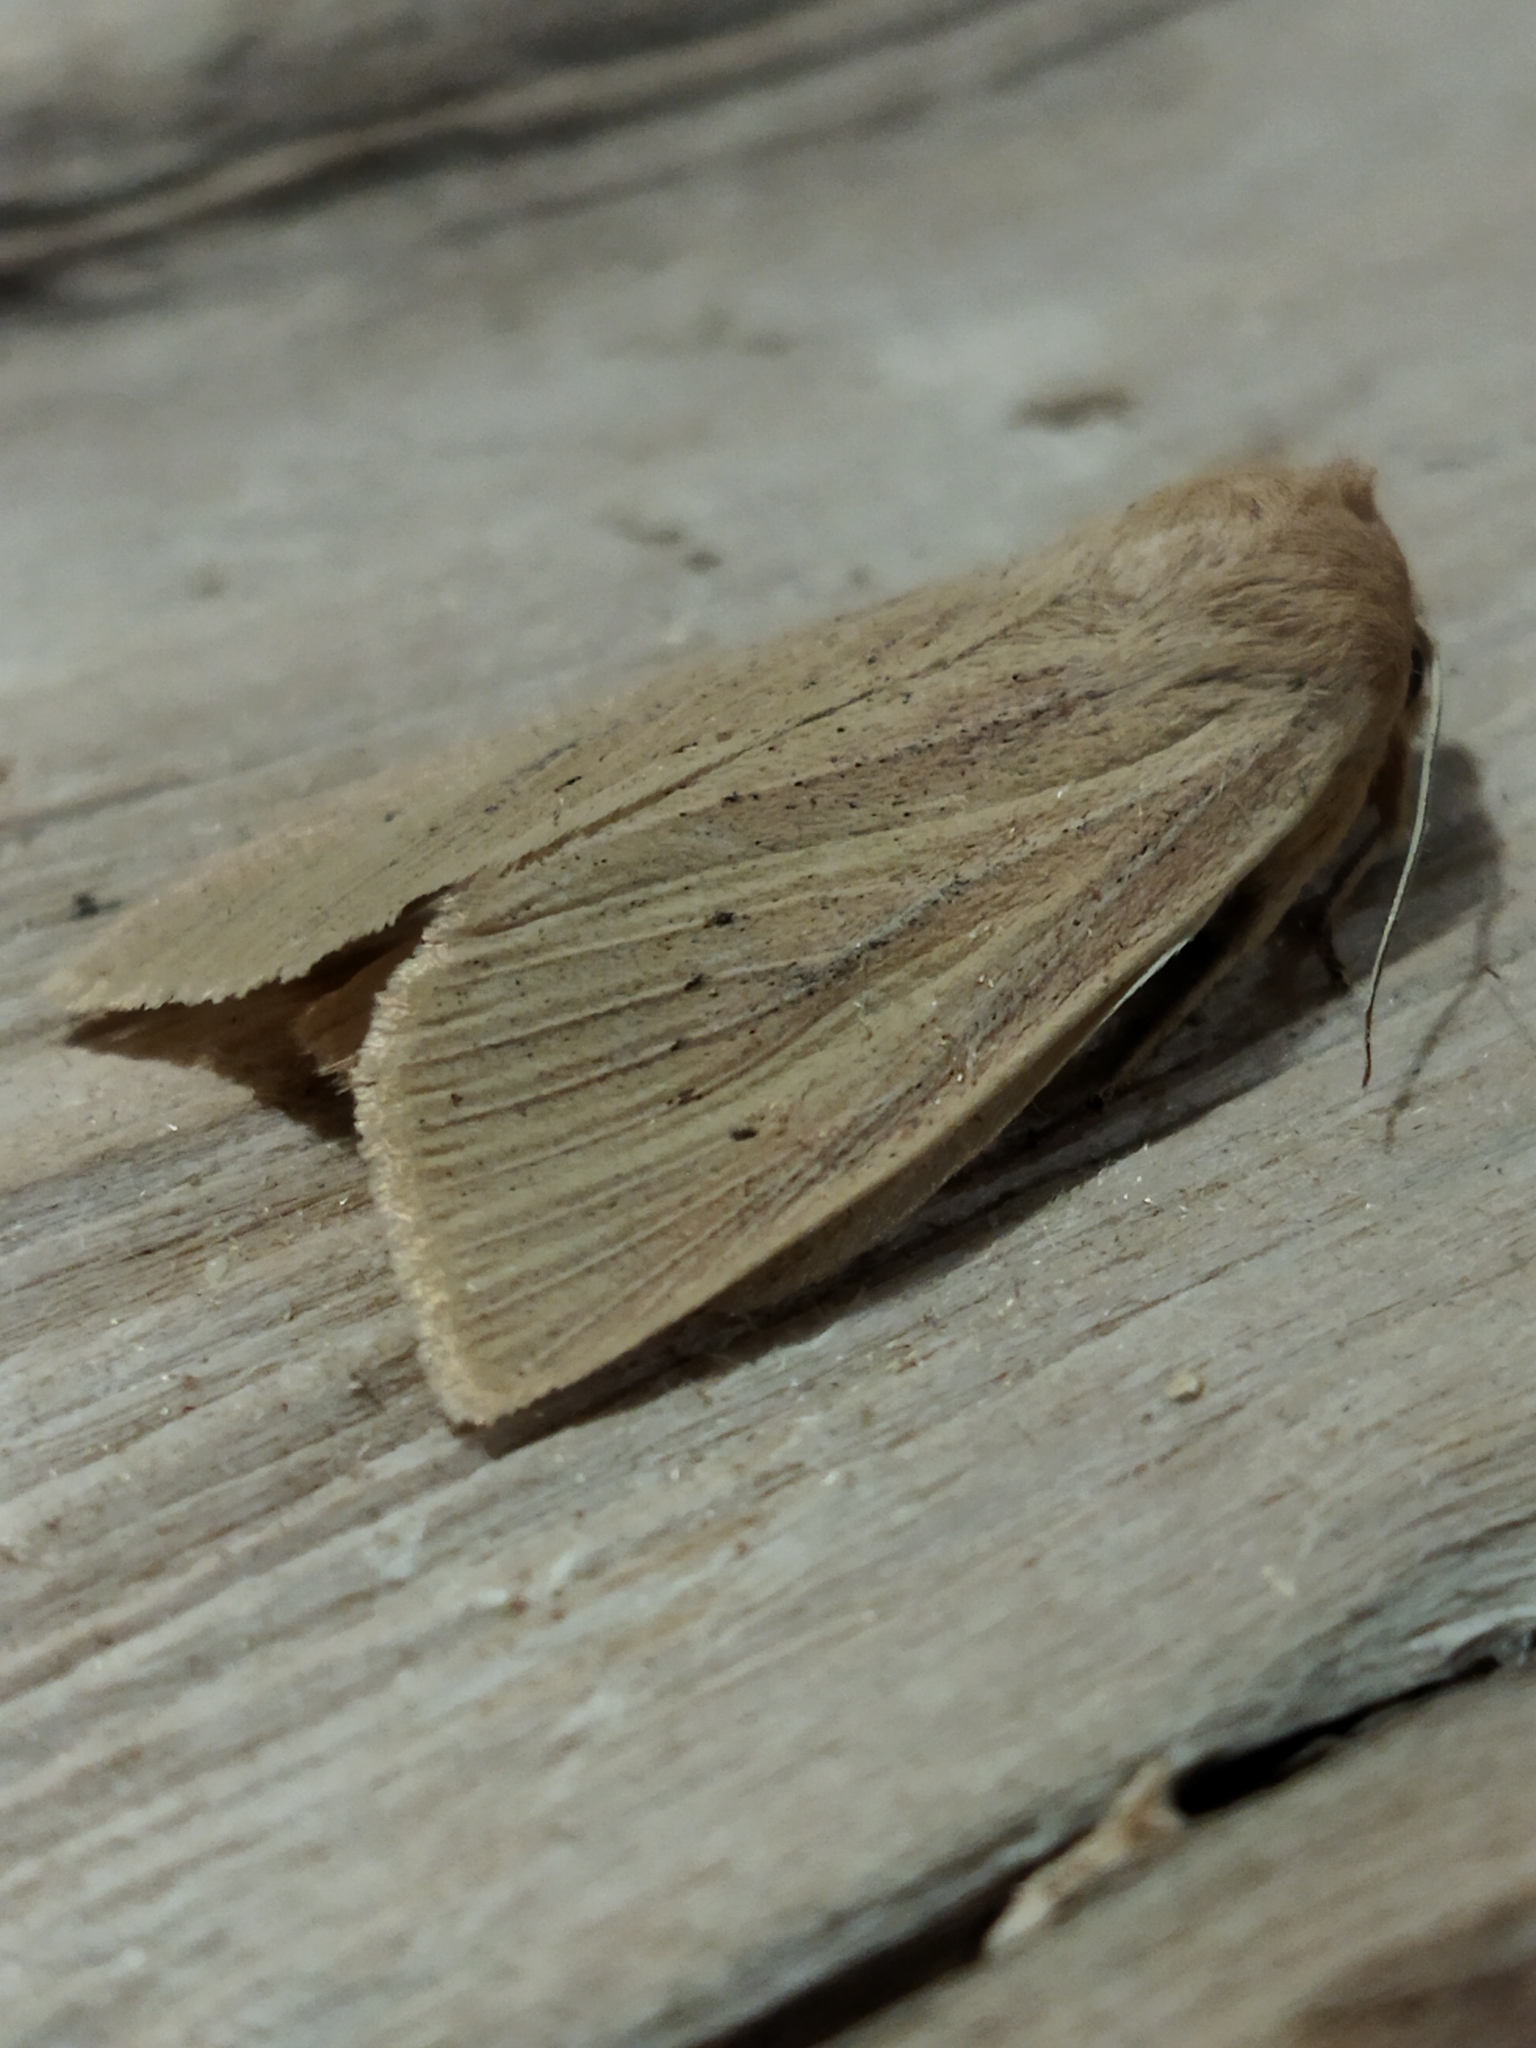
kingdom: Animalia
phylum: Arthropoda
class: Insecta
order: Lepidoptera
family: Noctuidae
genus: Rhizedra
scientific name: Rhizedra lutosa
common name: Large wainscot
